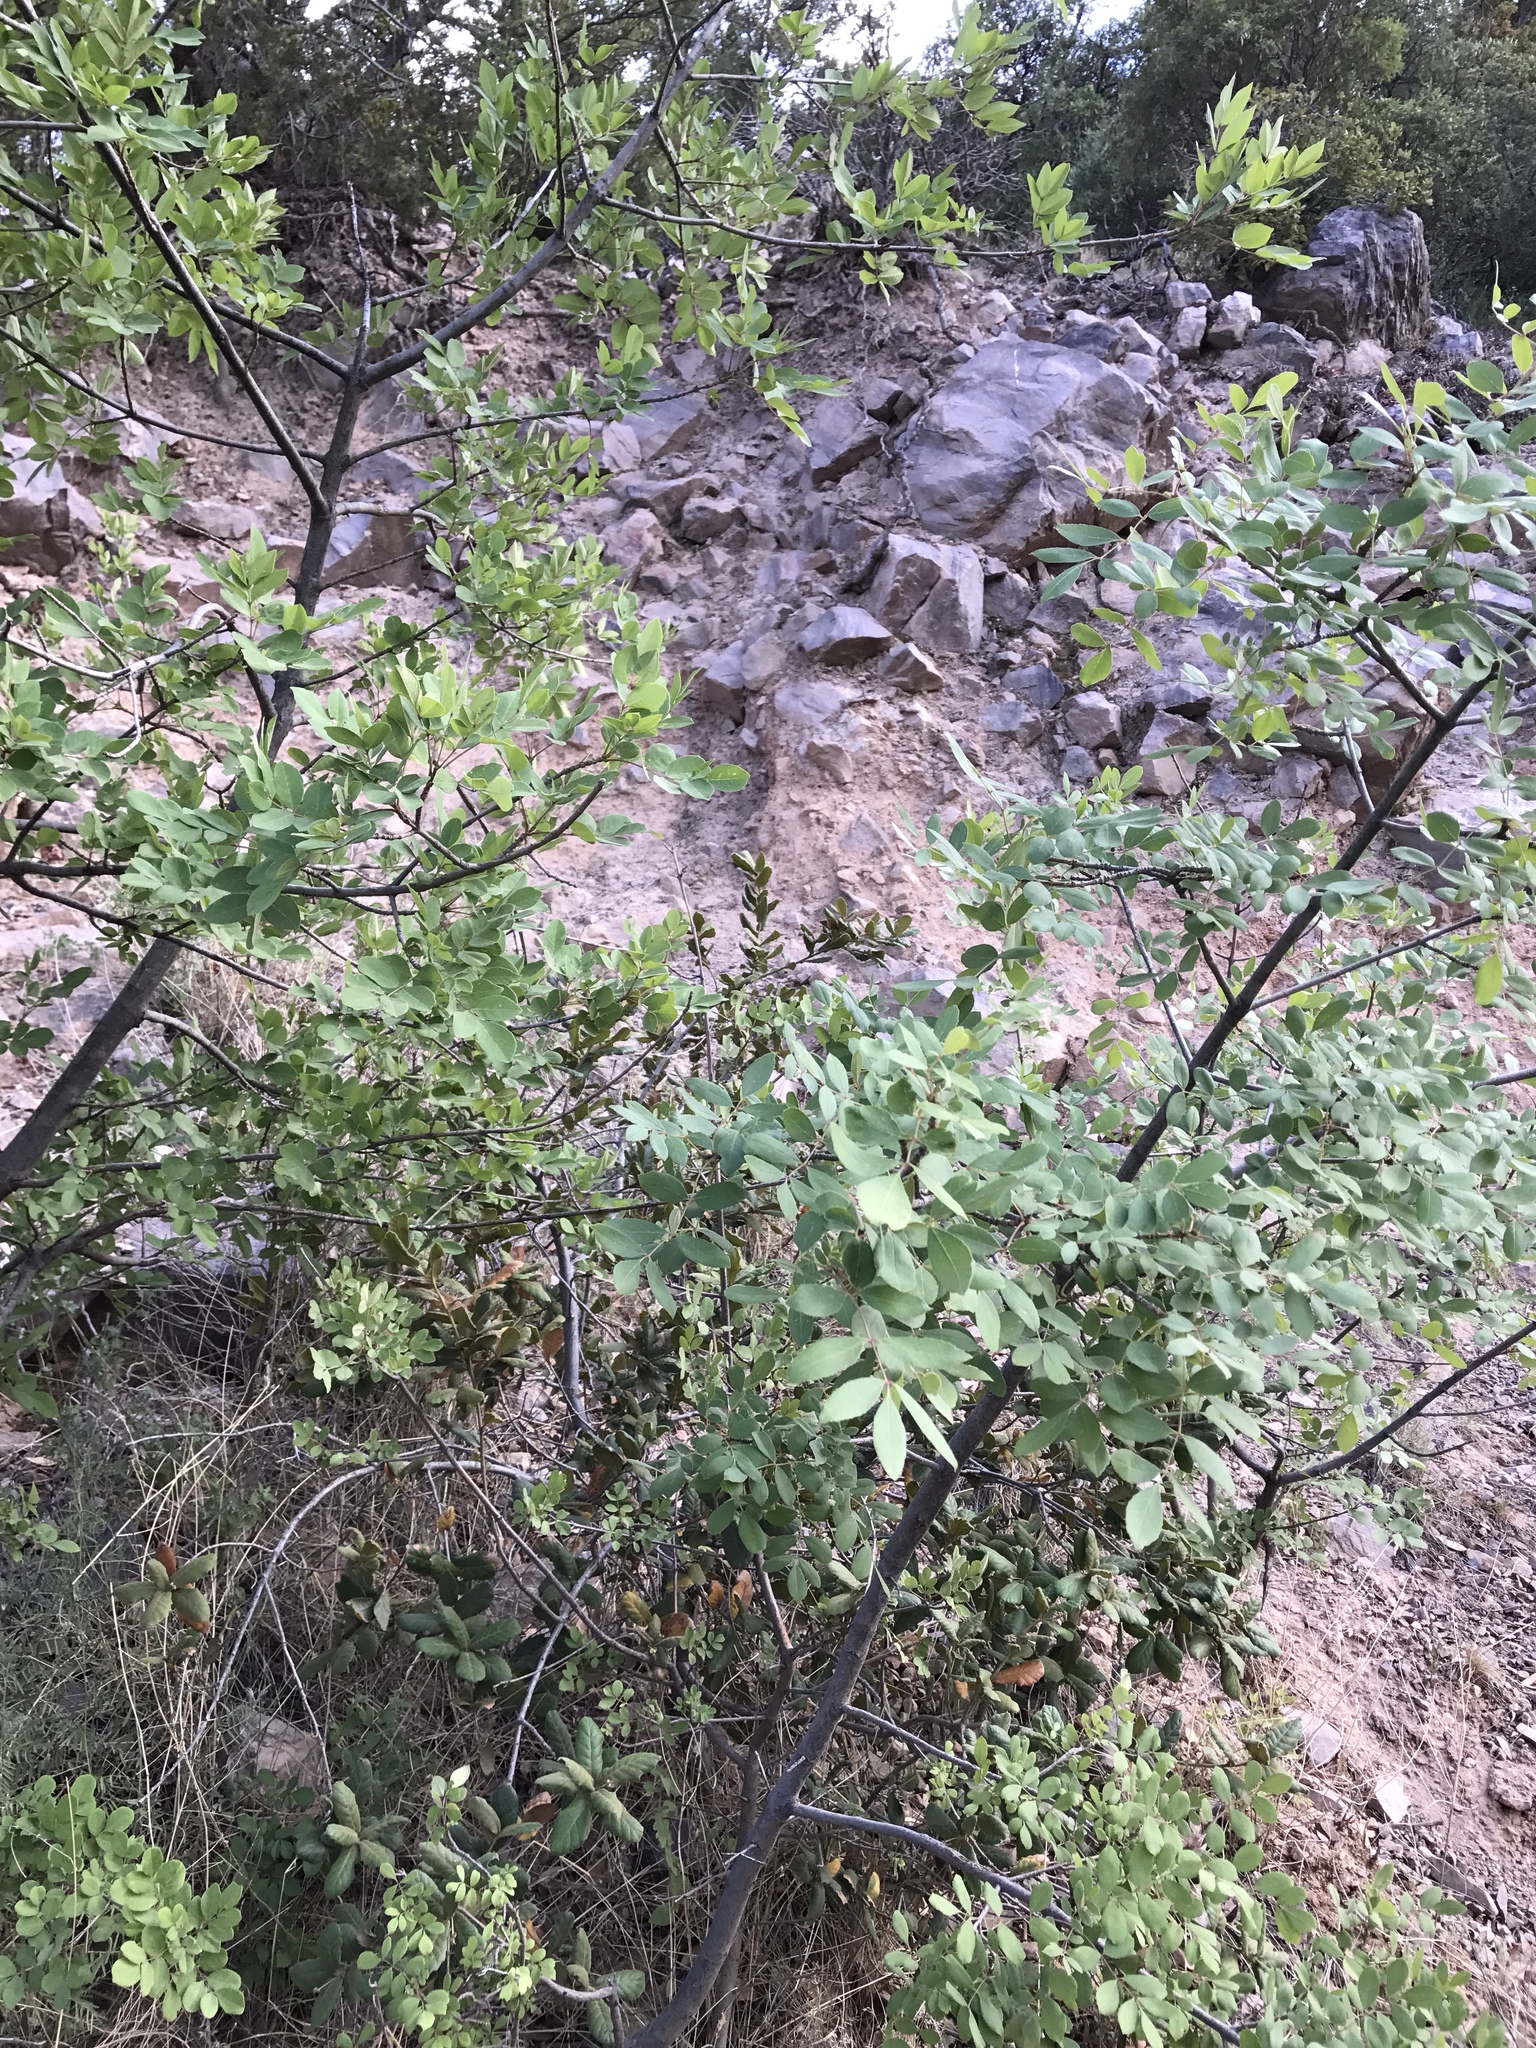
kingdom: Plantae
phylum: Tracheophyta
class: Magnoliopsida
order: Lamiales
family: Oleaceae
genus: Fraxinus
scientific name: Fraxinus papillosa
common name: Chihuahua ash
